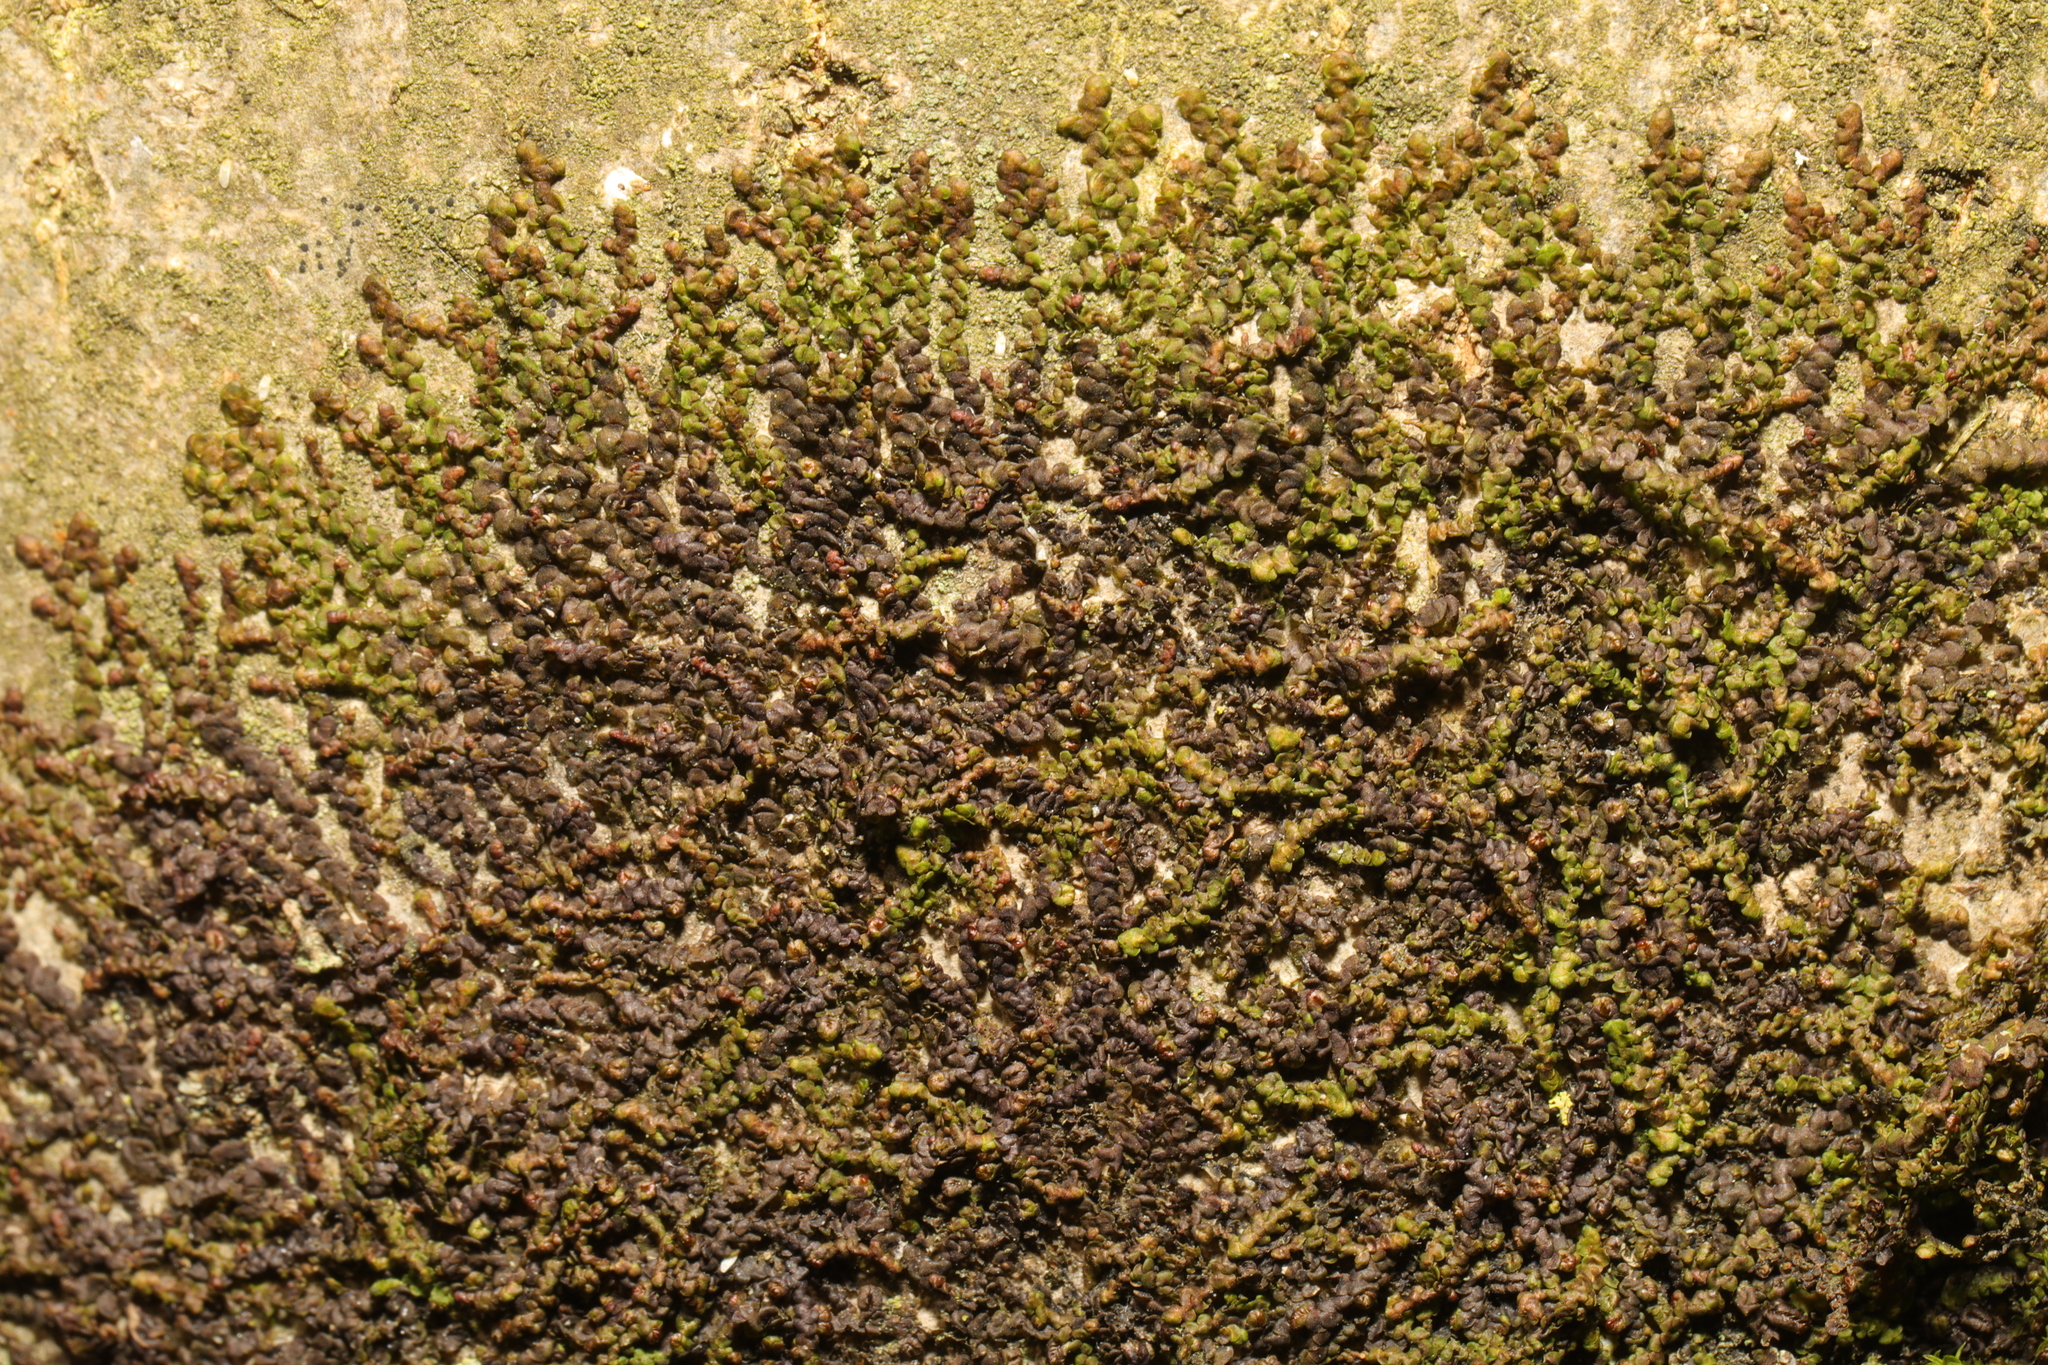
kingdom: Plantae
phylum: Marchantiophyta
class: Jungermanniopsida
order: Porellales
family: Frullaniaceae
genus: Frullania
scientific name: Frullania dilatata
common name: Dilated scalewort
